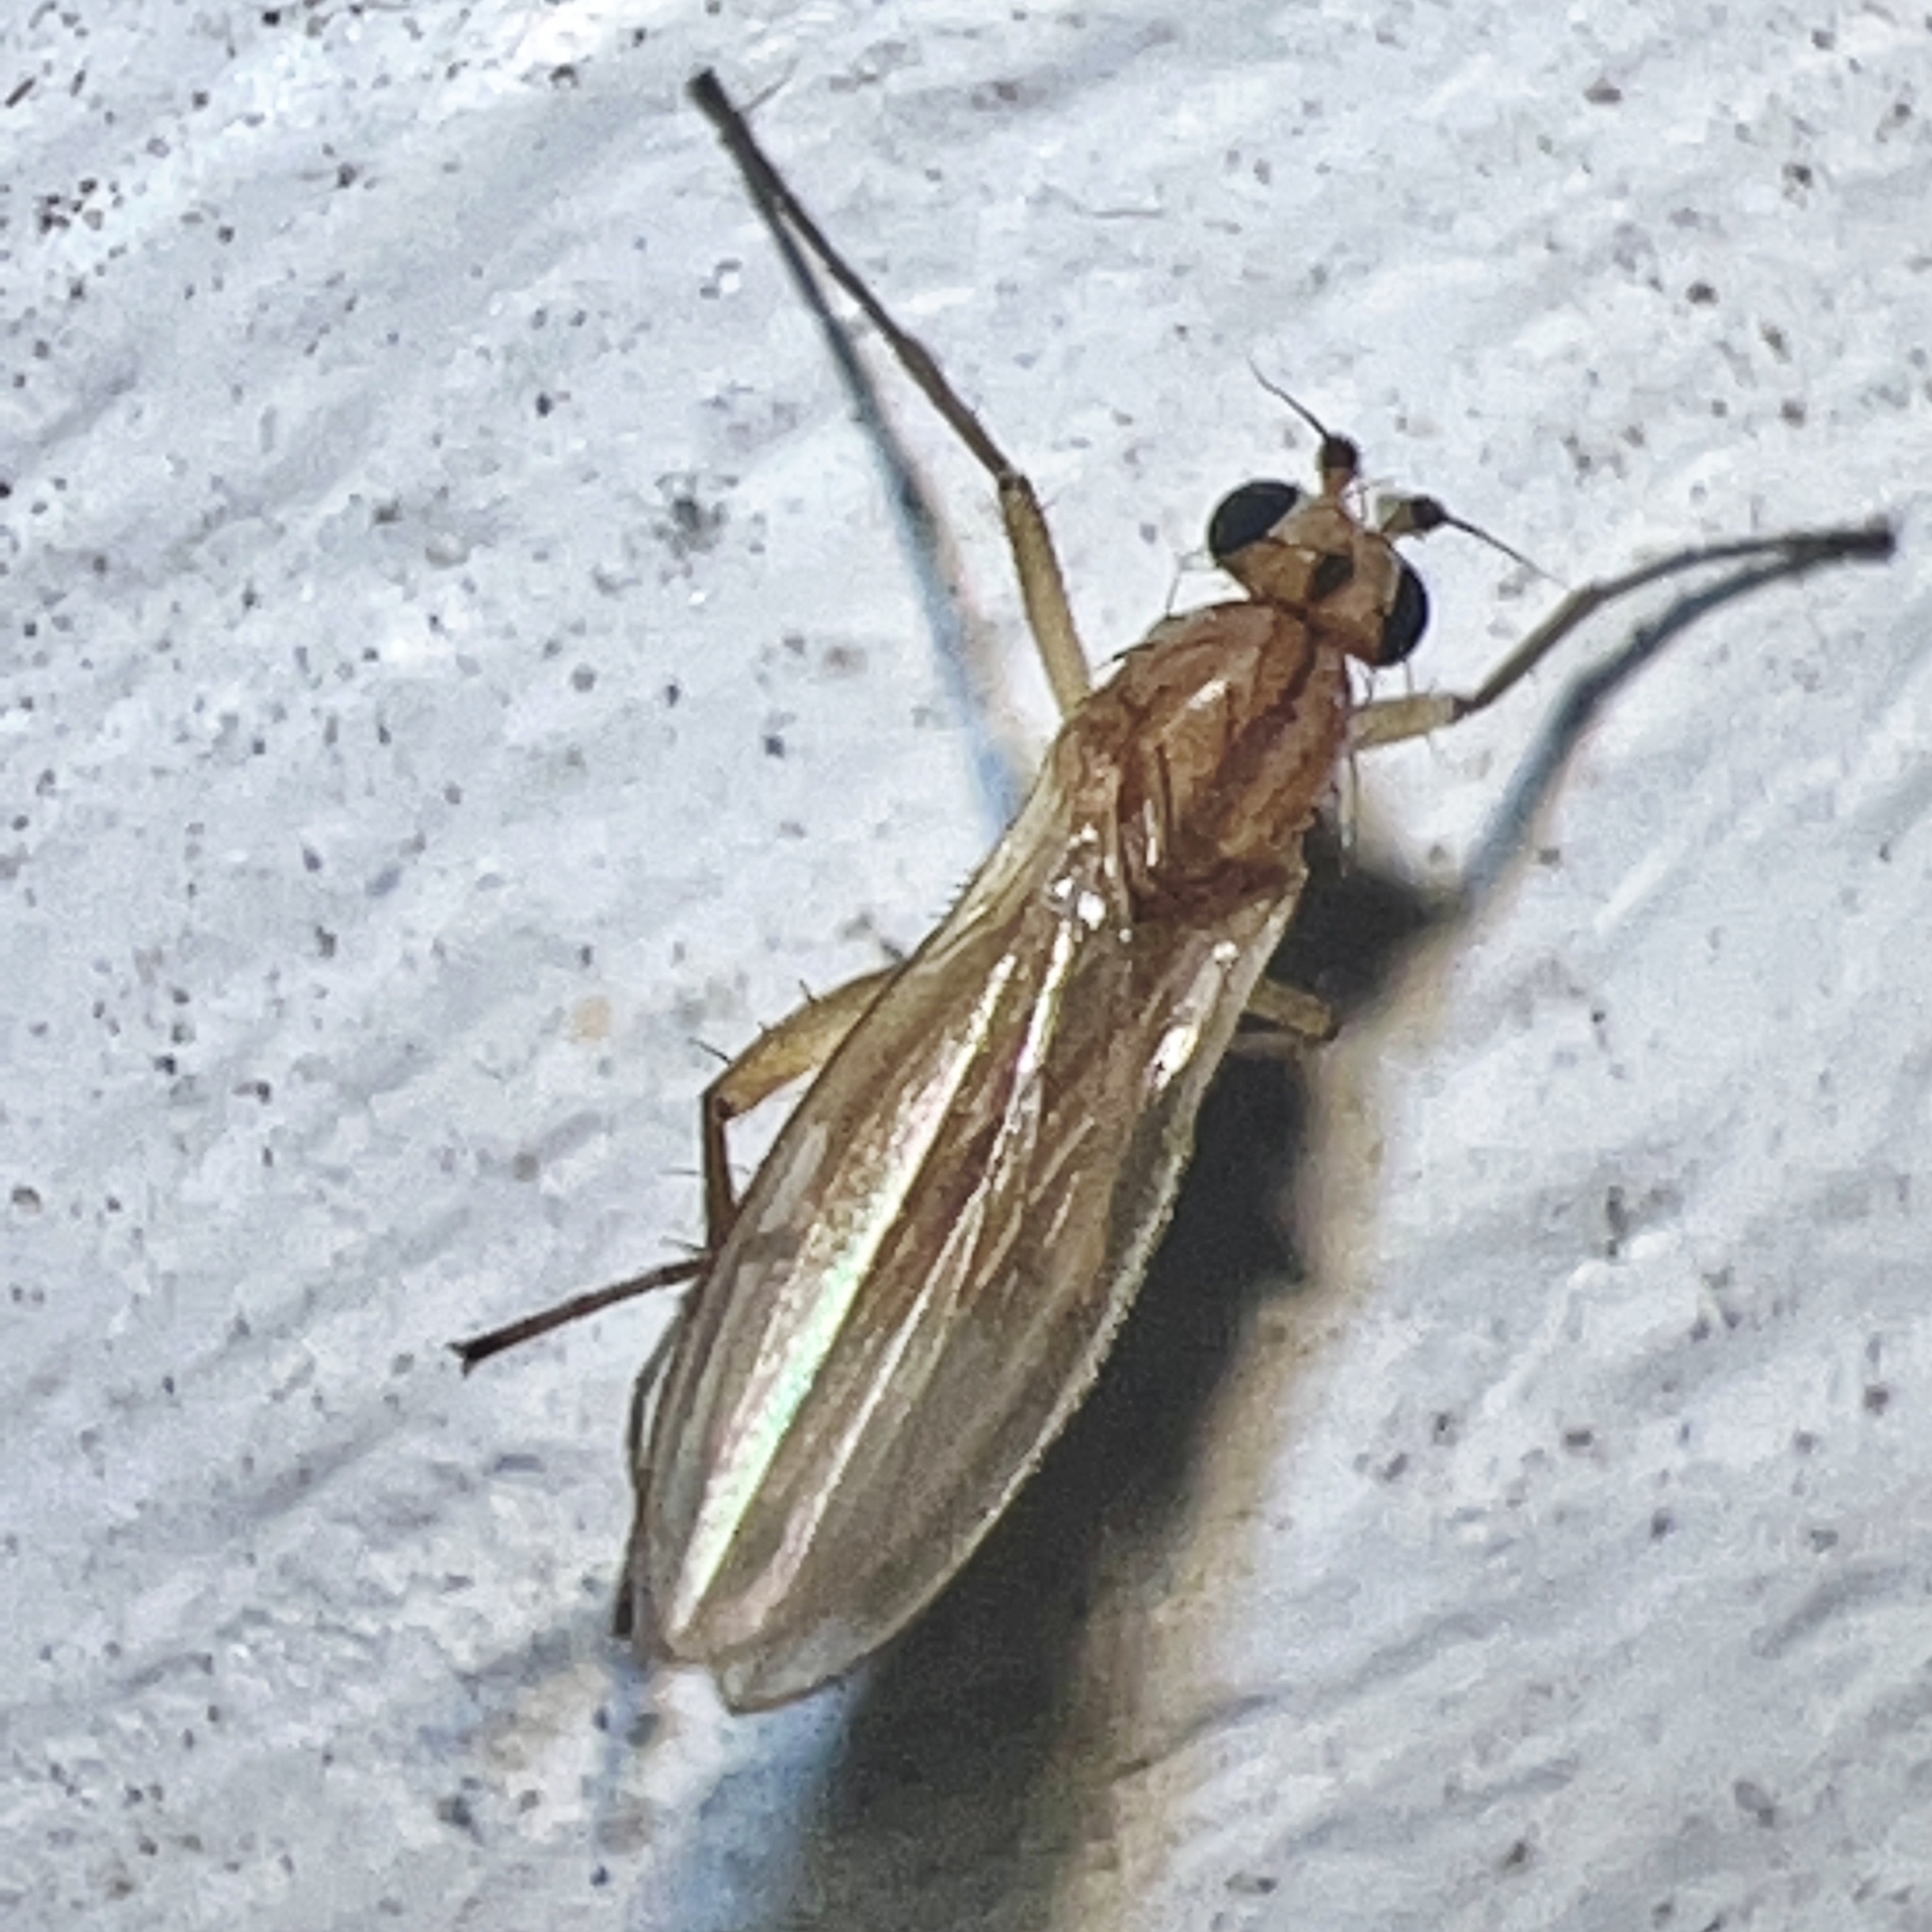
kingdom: Animalia
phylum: Arthropoda
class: Insecta
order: Diptera
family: Lonchopteridae
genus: Lonchoptera
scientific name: Lonchoptera bifurcata
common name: Spear-winged fly
